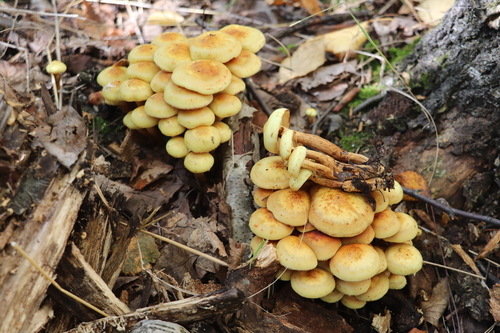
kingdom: Fungi
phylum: Basidiomycota
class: Agaricomycetes
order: Agaricales
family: Hymenogastraceae
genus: Flammula
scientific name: Flammula alnicola
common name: Alder scalycap
